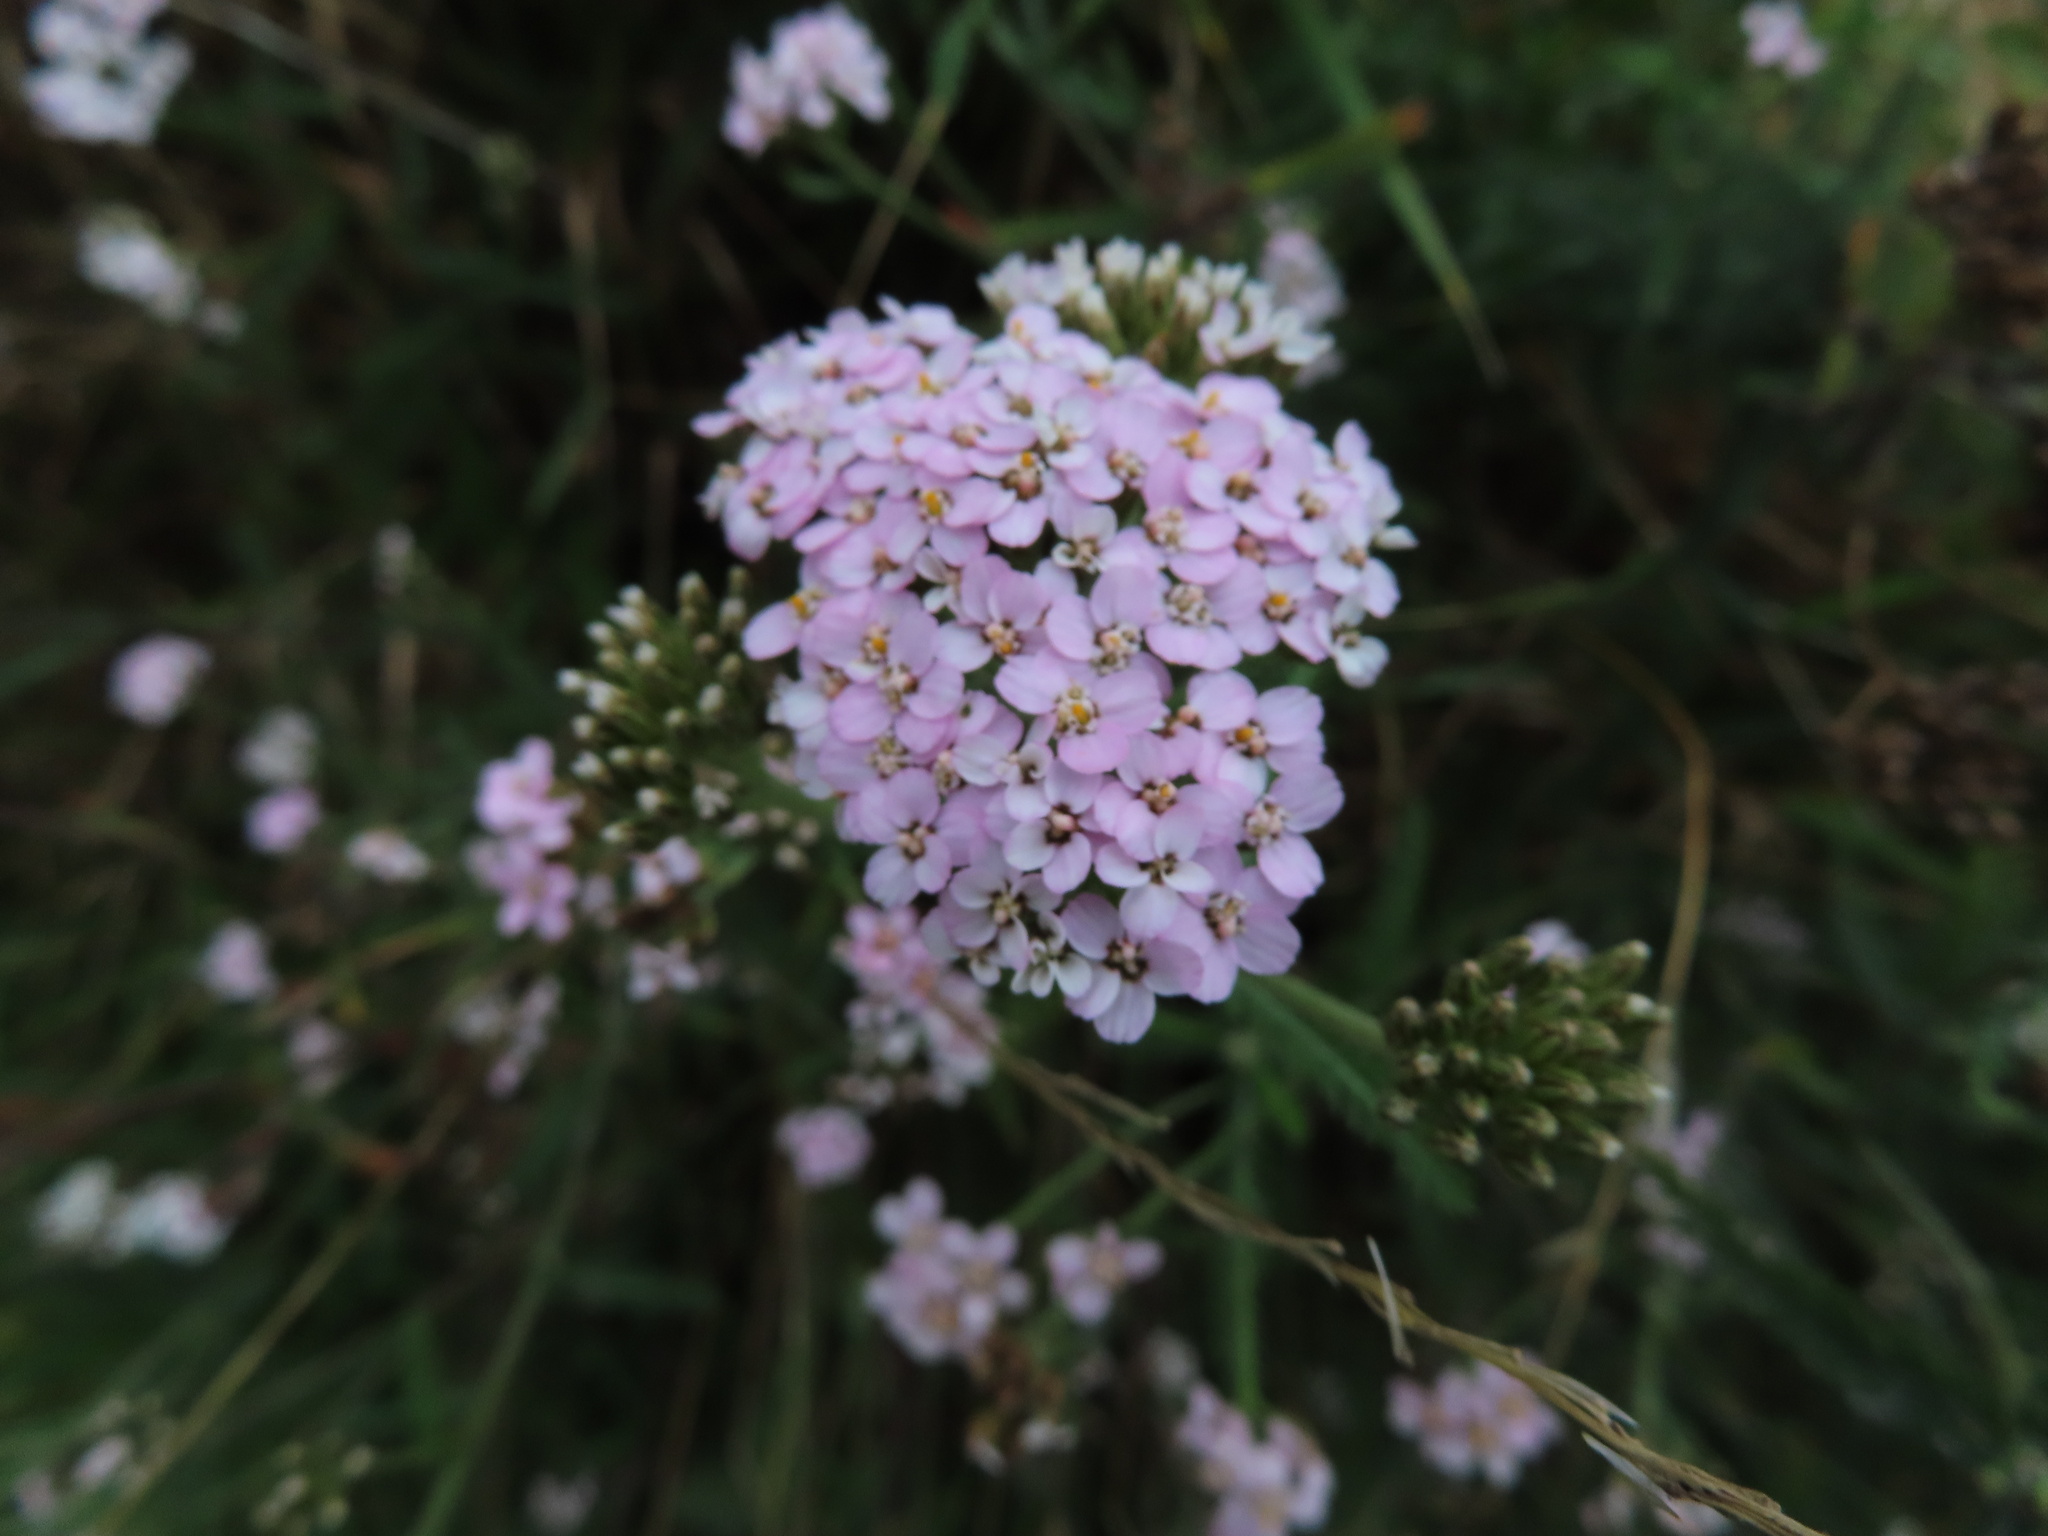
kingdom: Plantae
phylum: Tracheophyta
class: Magnoliopsida
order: Asterales
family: Asteraceae
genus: Achillea
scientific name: Achillea millefolium
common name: Yarrow
